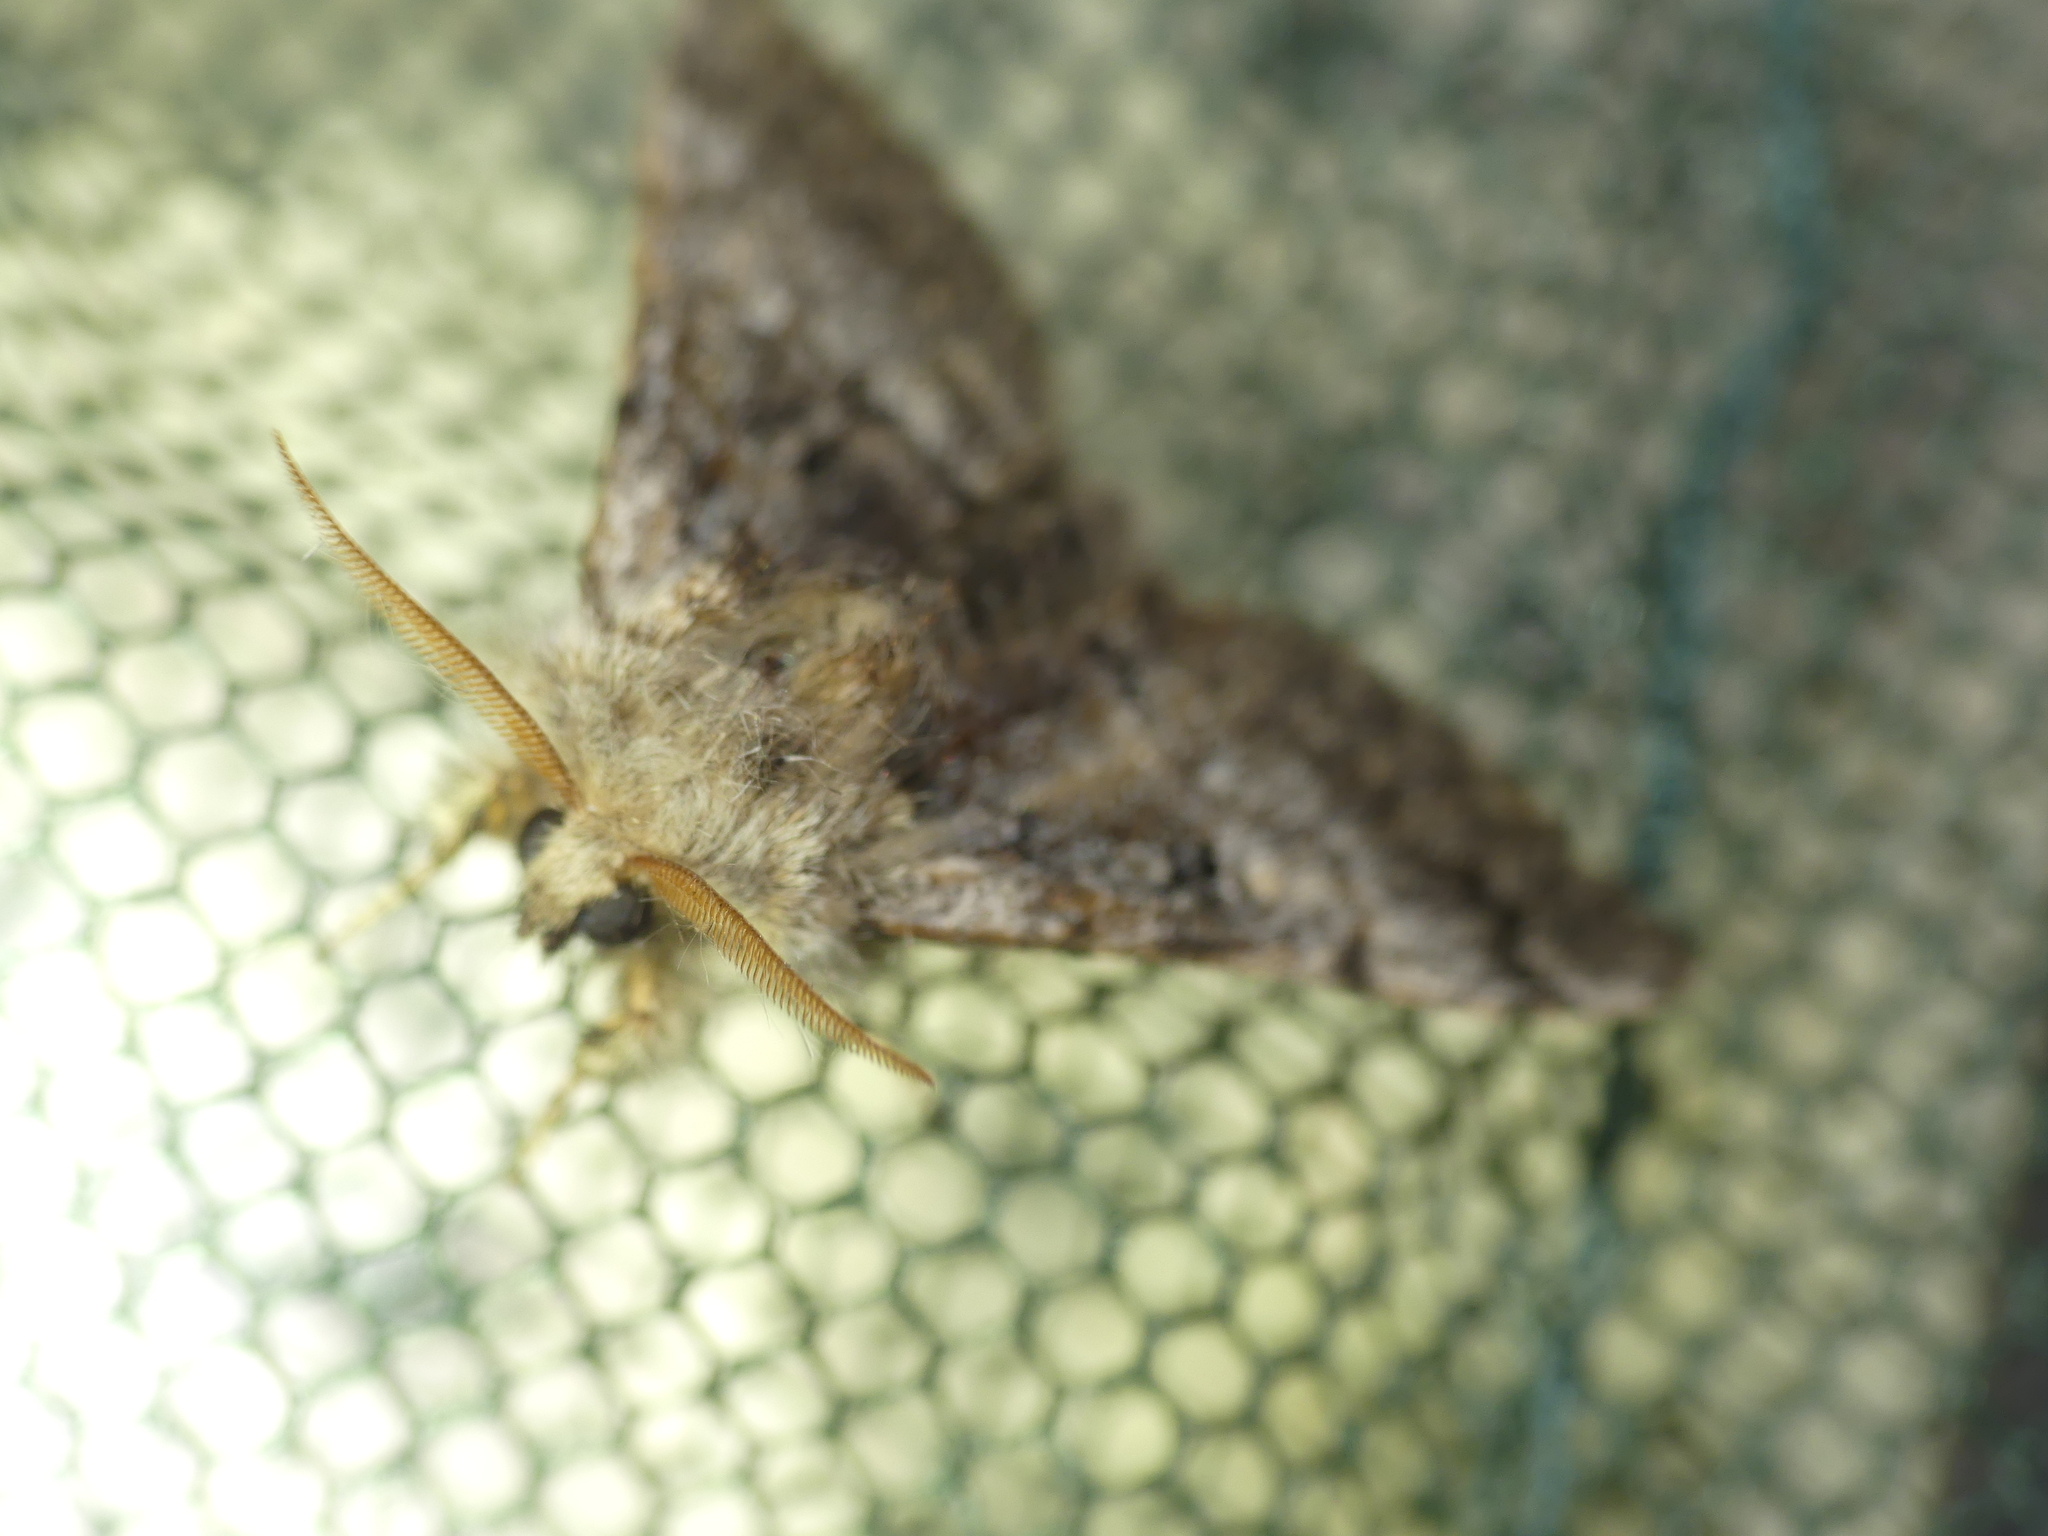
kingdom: Animalia
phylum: Arthropoda
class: Insecta
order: Lepidoptera
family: Noctuidae
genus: Colocasia
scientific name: Colocasia coryli
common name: Nut-tree tussock
